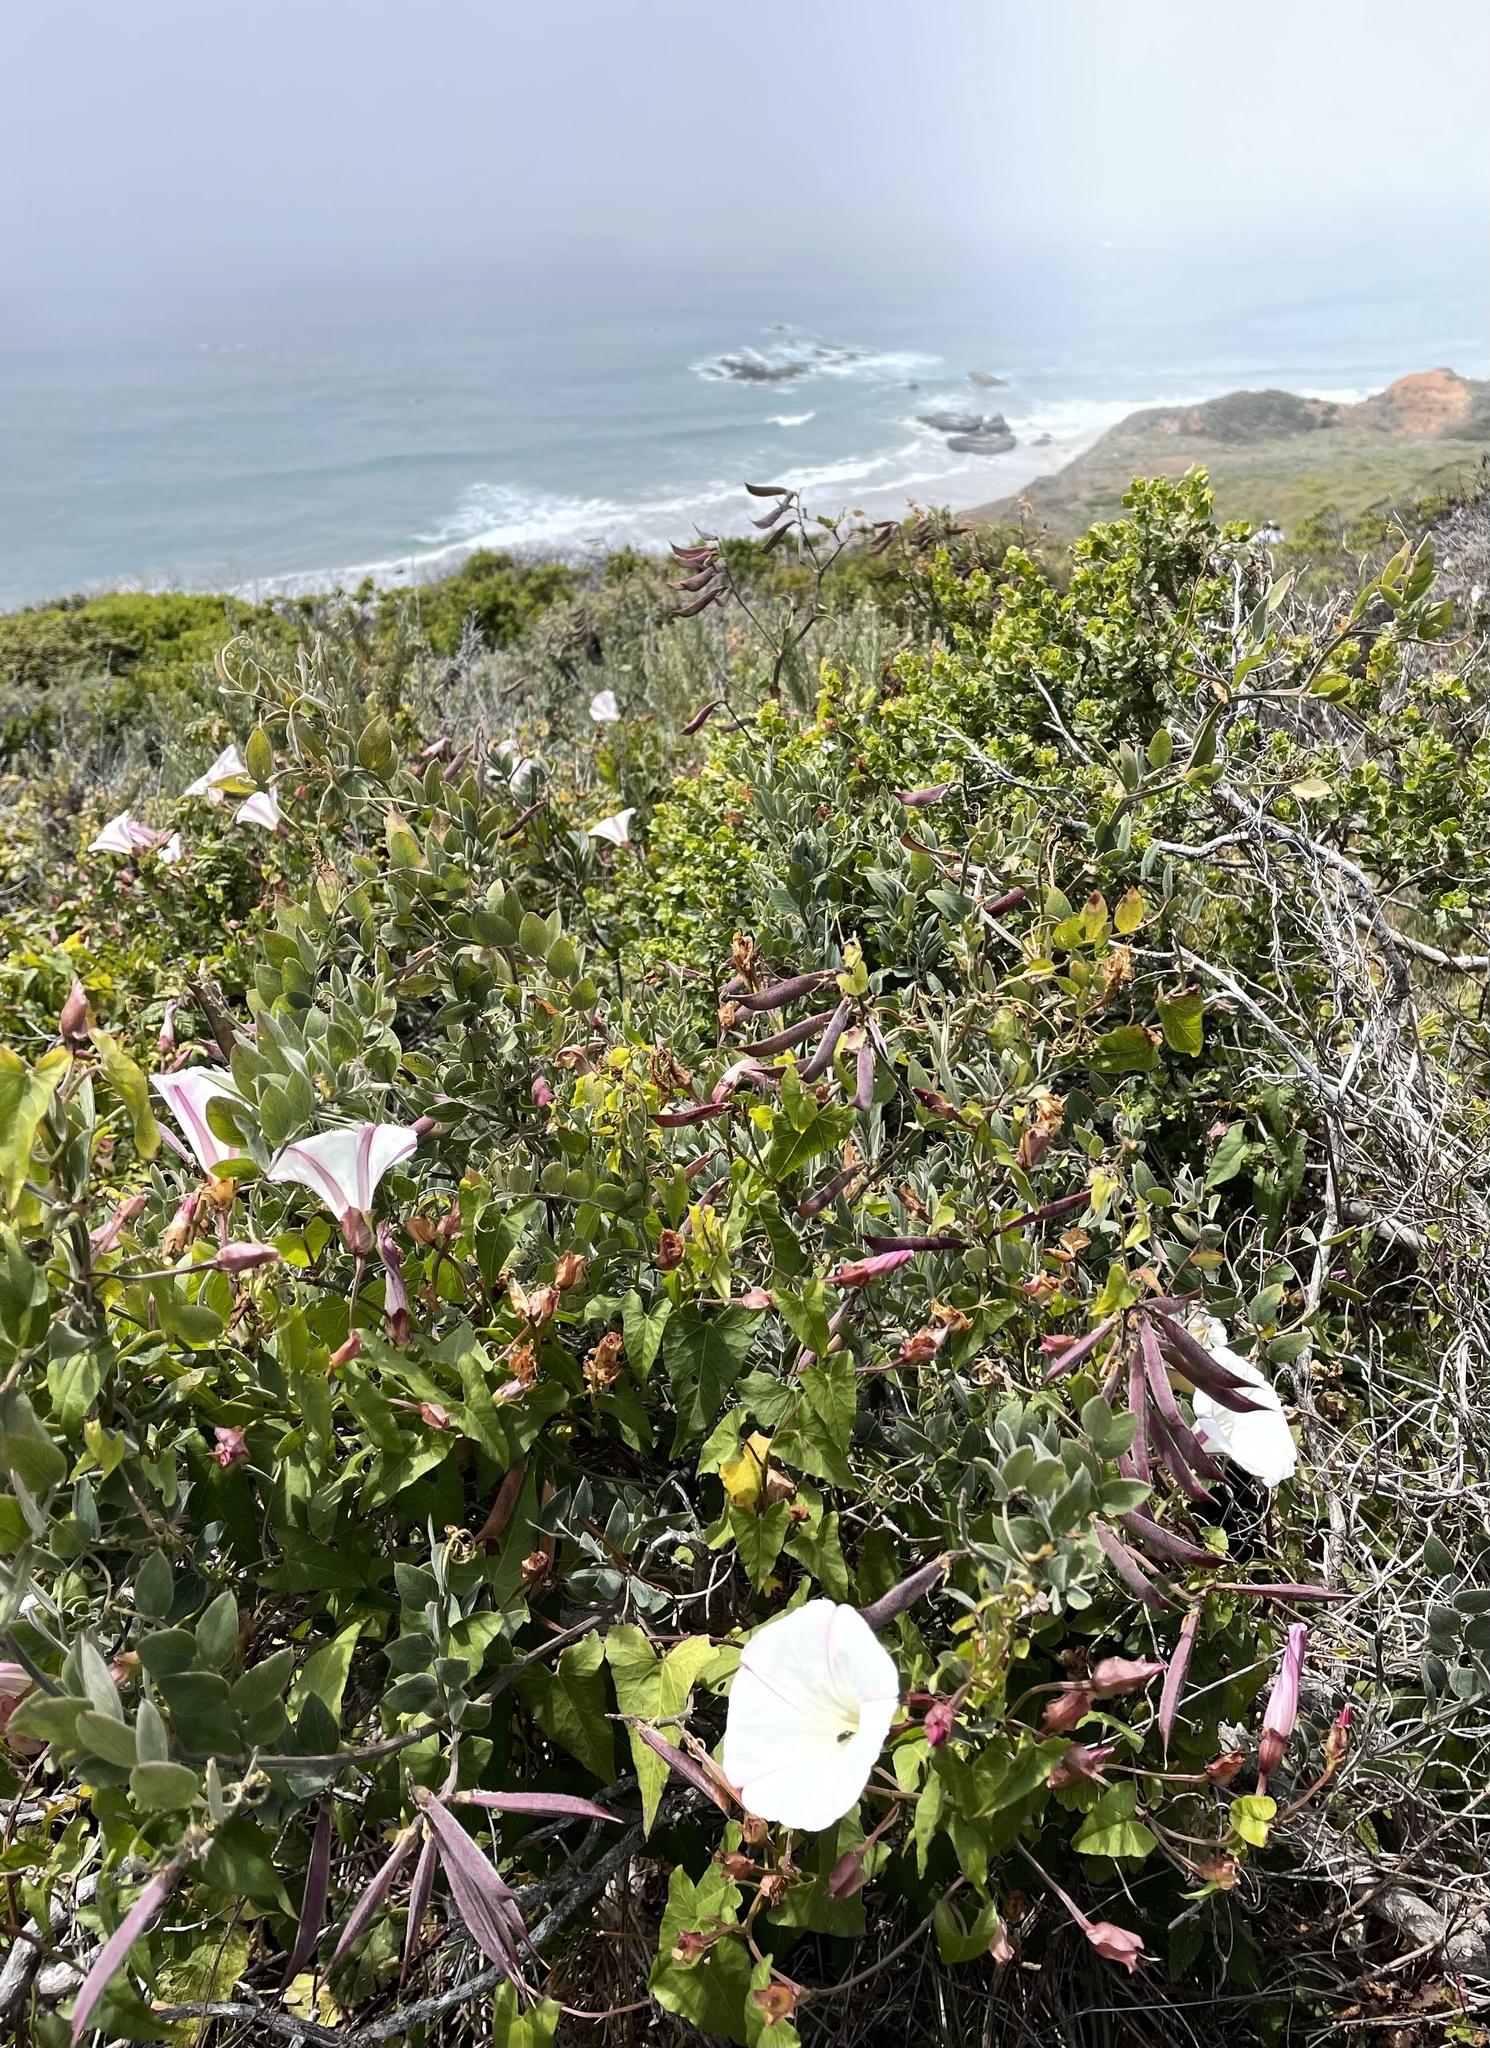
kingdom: Plantae
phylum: Tracheophyta
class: Magnoliopsida
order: Solanales
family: Convolvulaceae
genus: Calystegia
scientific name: Calystegia macrostegia
